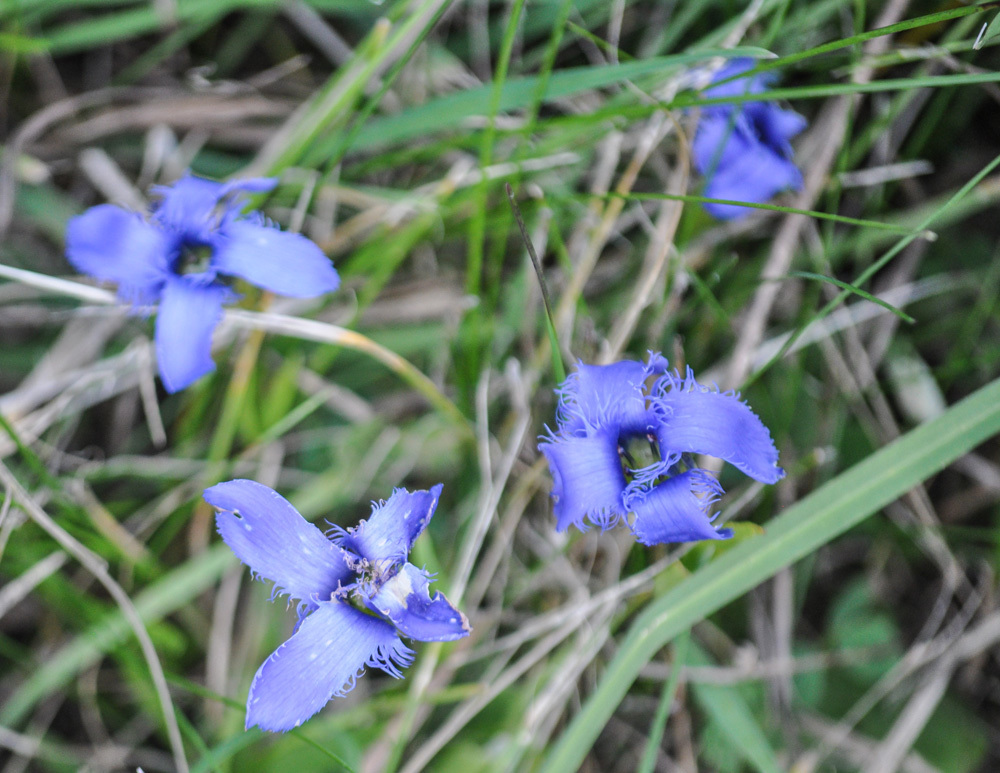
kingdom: Plantae
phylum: Tracheophyta
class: Magnoliopsida
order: Gentianales
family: Gentianaceae
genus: Gentianopsis
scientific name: Gentianopsis ciliata
